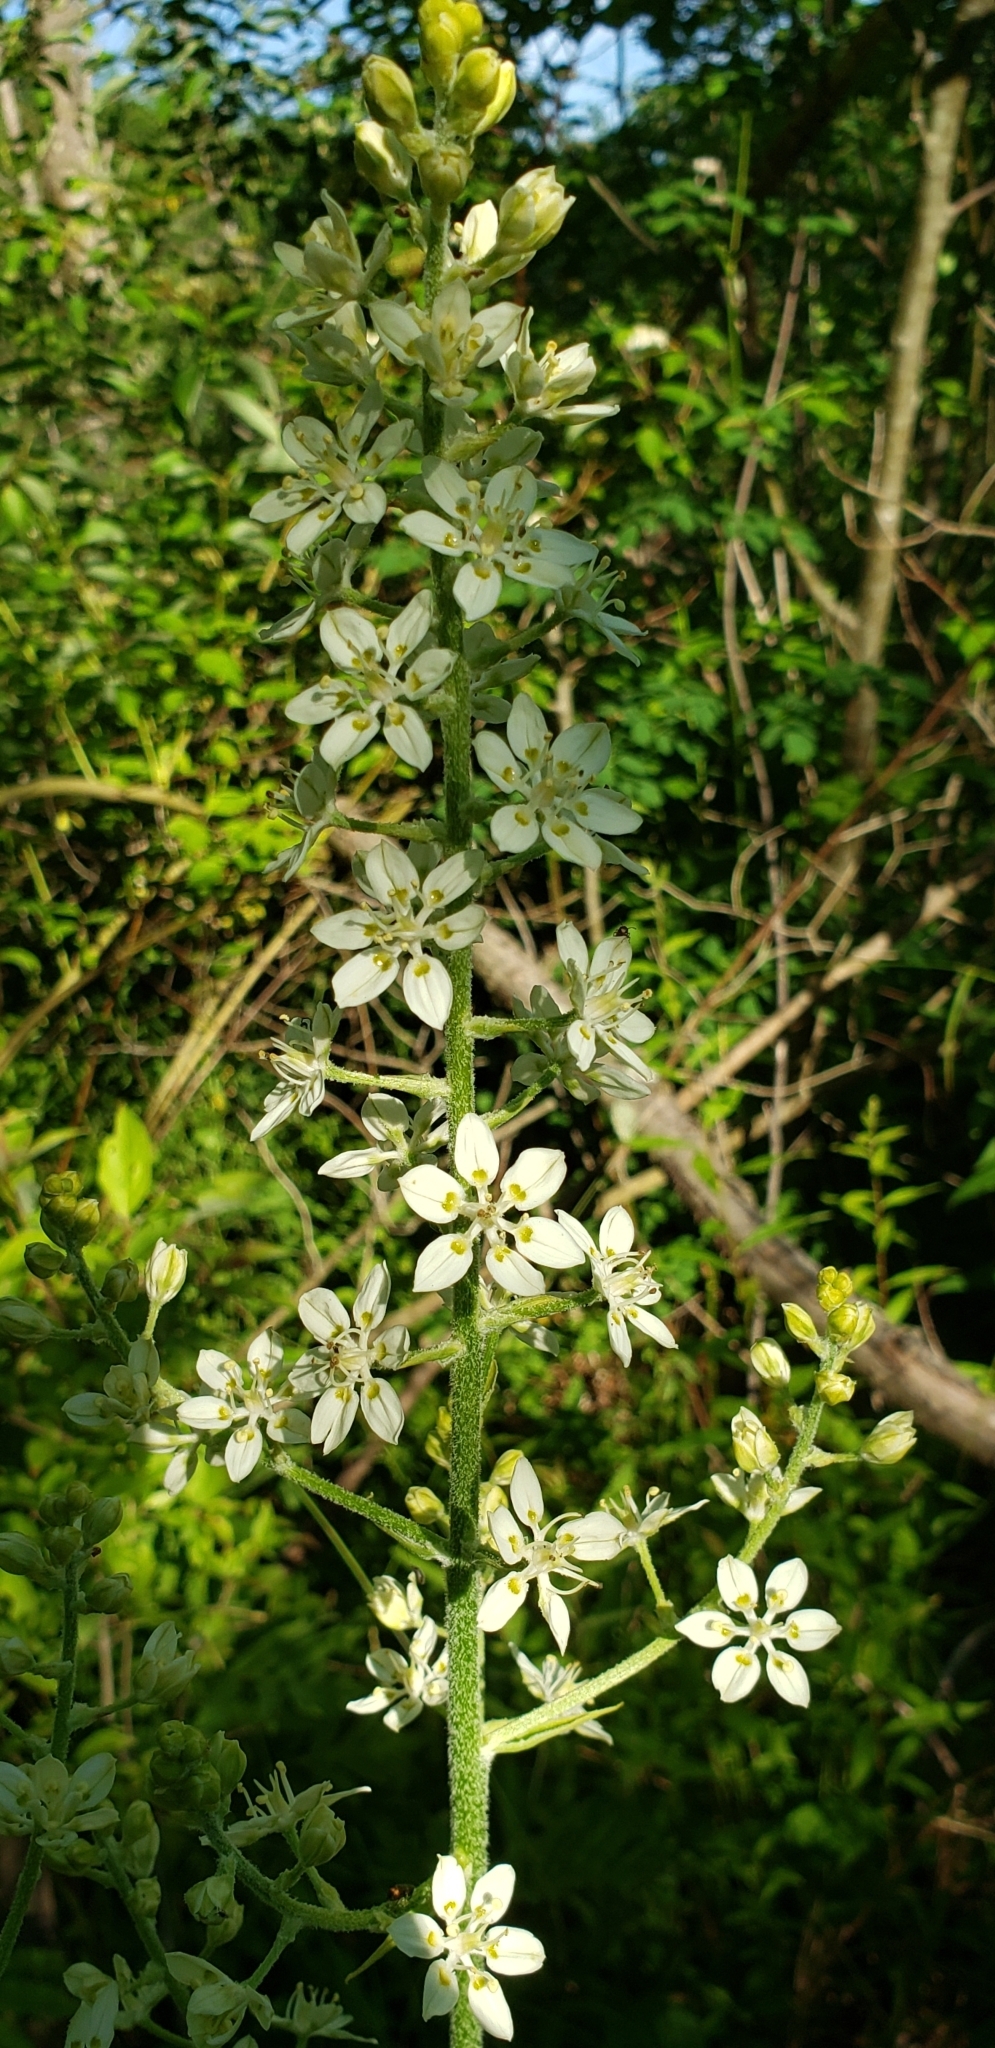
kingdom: Plantae
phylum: Tracheophyta
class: Liliopsida
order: Liliales
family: Melanthiaceae
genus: Melanthium
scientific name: Melanthium virginicum
